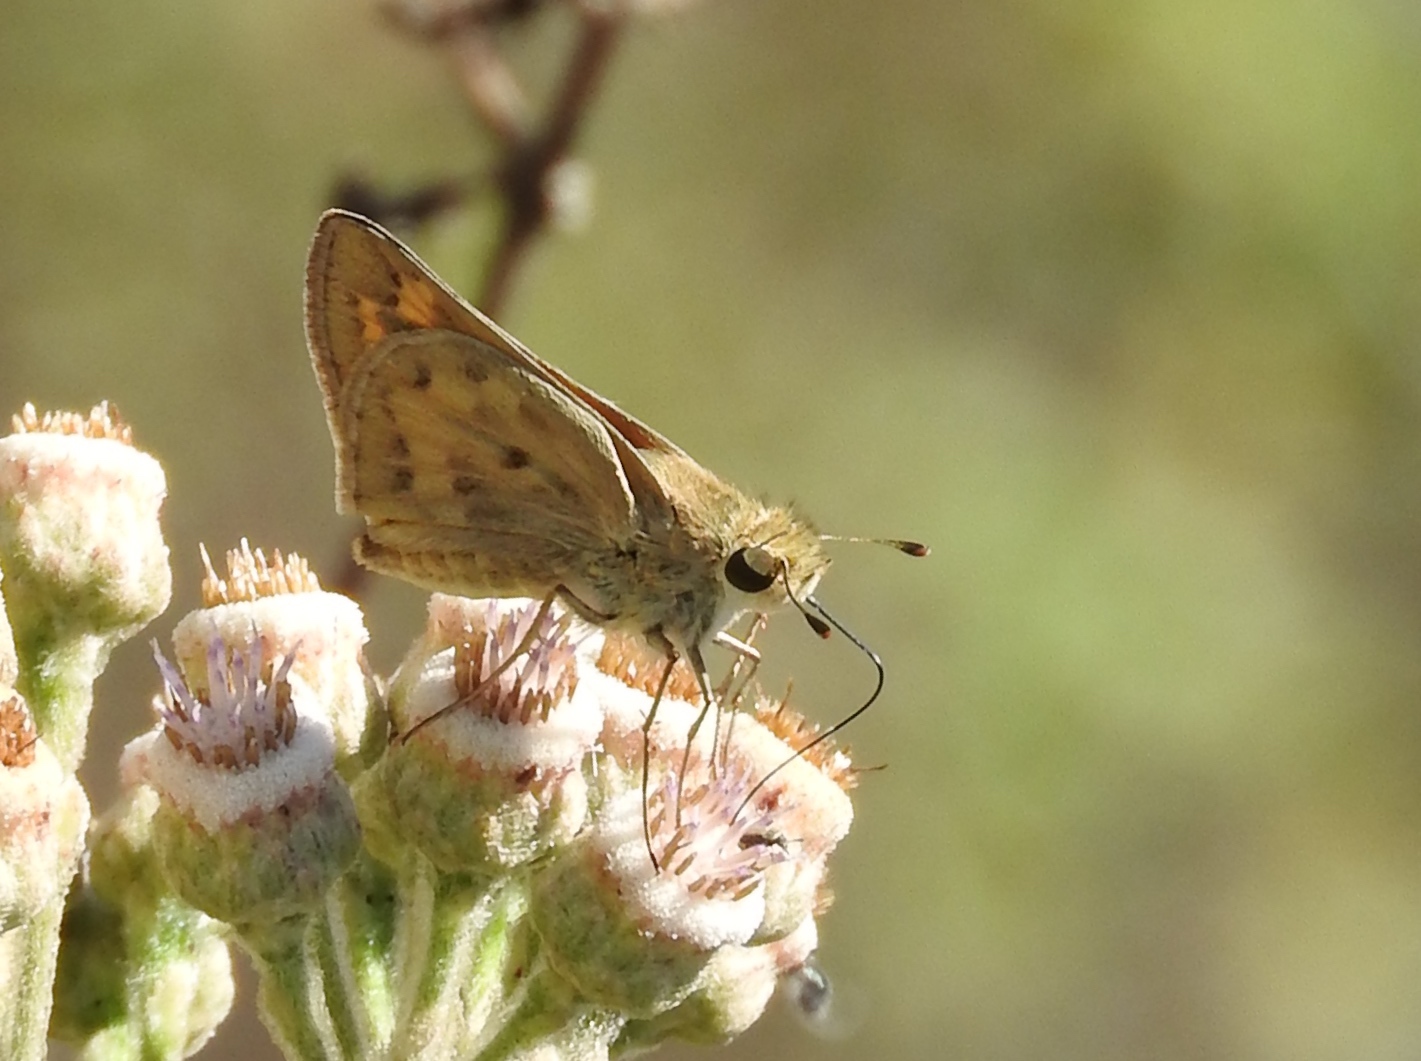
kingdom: Animalia
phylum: Arthropoda
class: Insecta
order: Lepidoptera
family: Hesperiidae
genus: Hylephila
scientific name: Hylephila phyleus
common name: Fiery skipper
